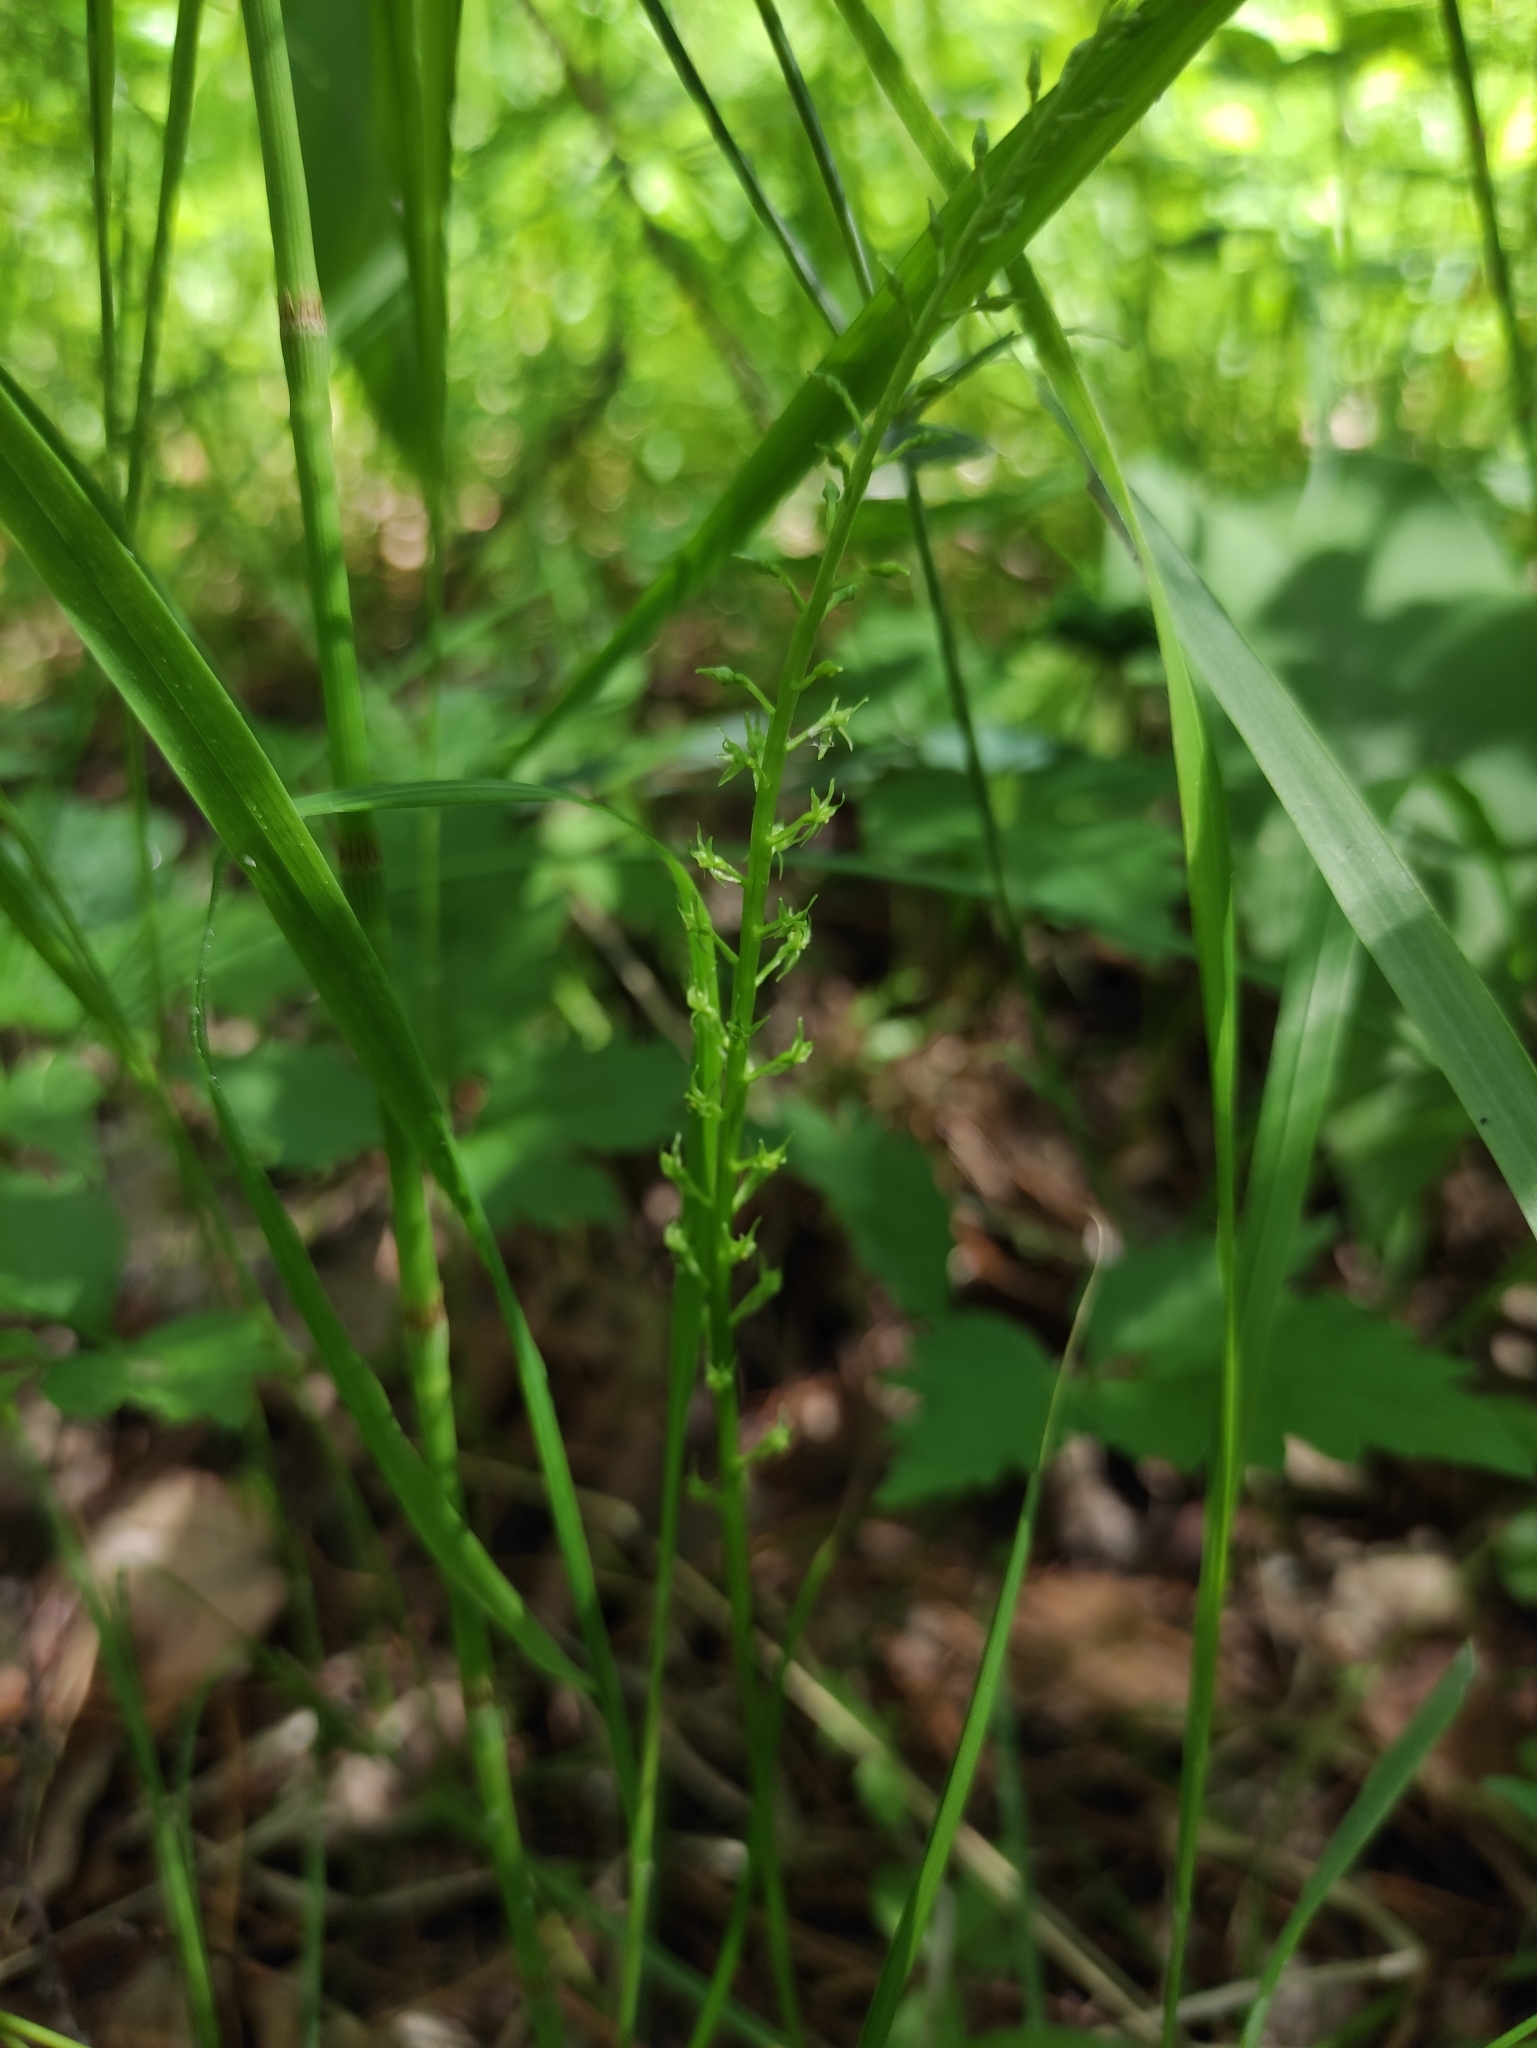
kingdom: Plantae
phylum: Tracheophyta
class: Liliopsida
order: Asparagales
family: Orchidaceae
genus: Malaxis
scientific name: Malaxis monophyllos
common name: White adder's-mouth
